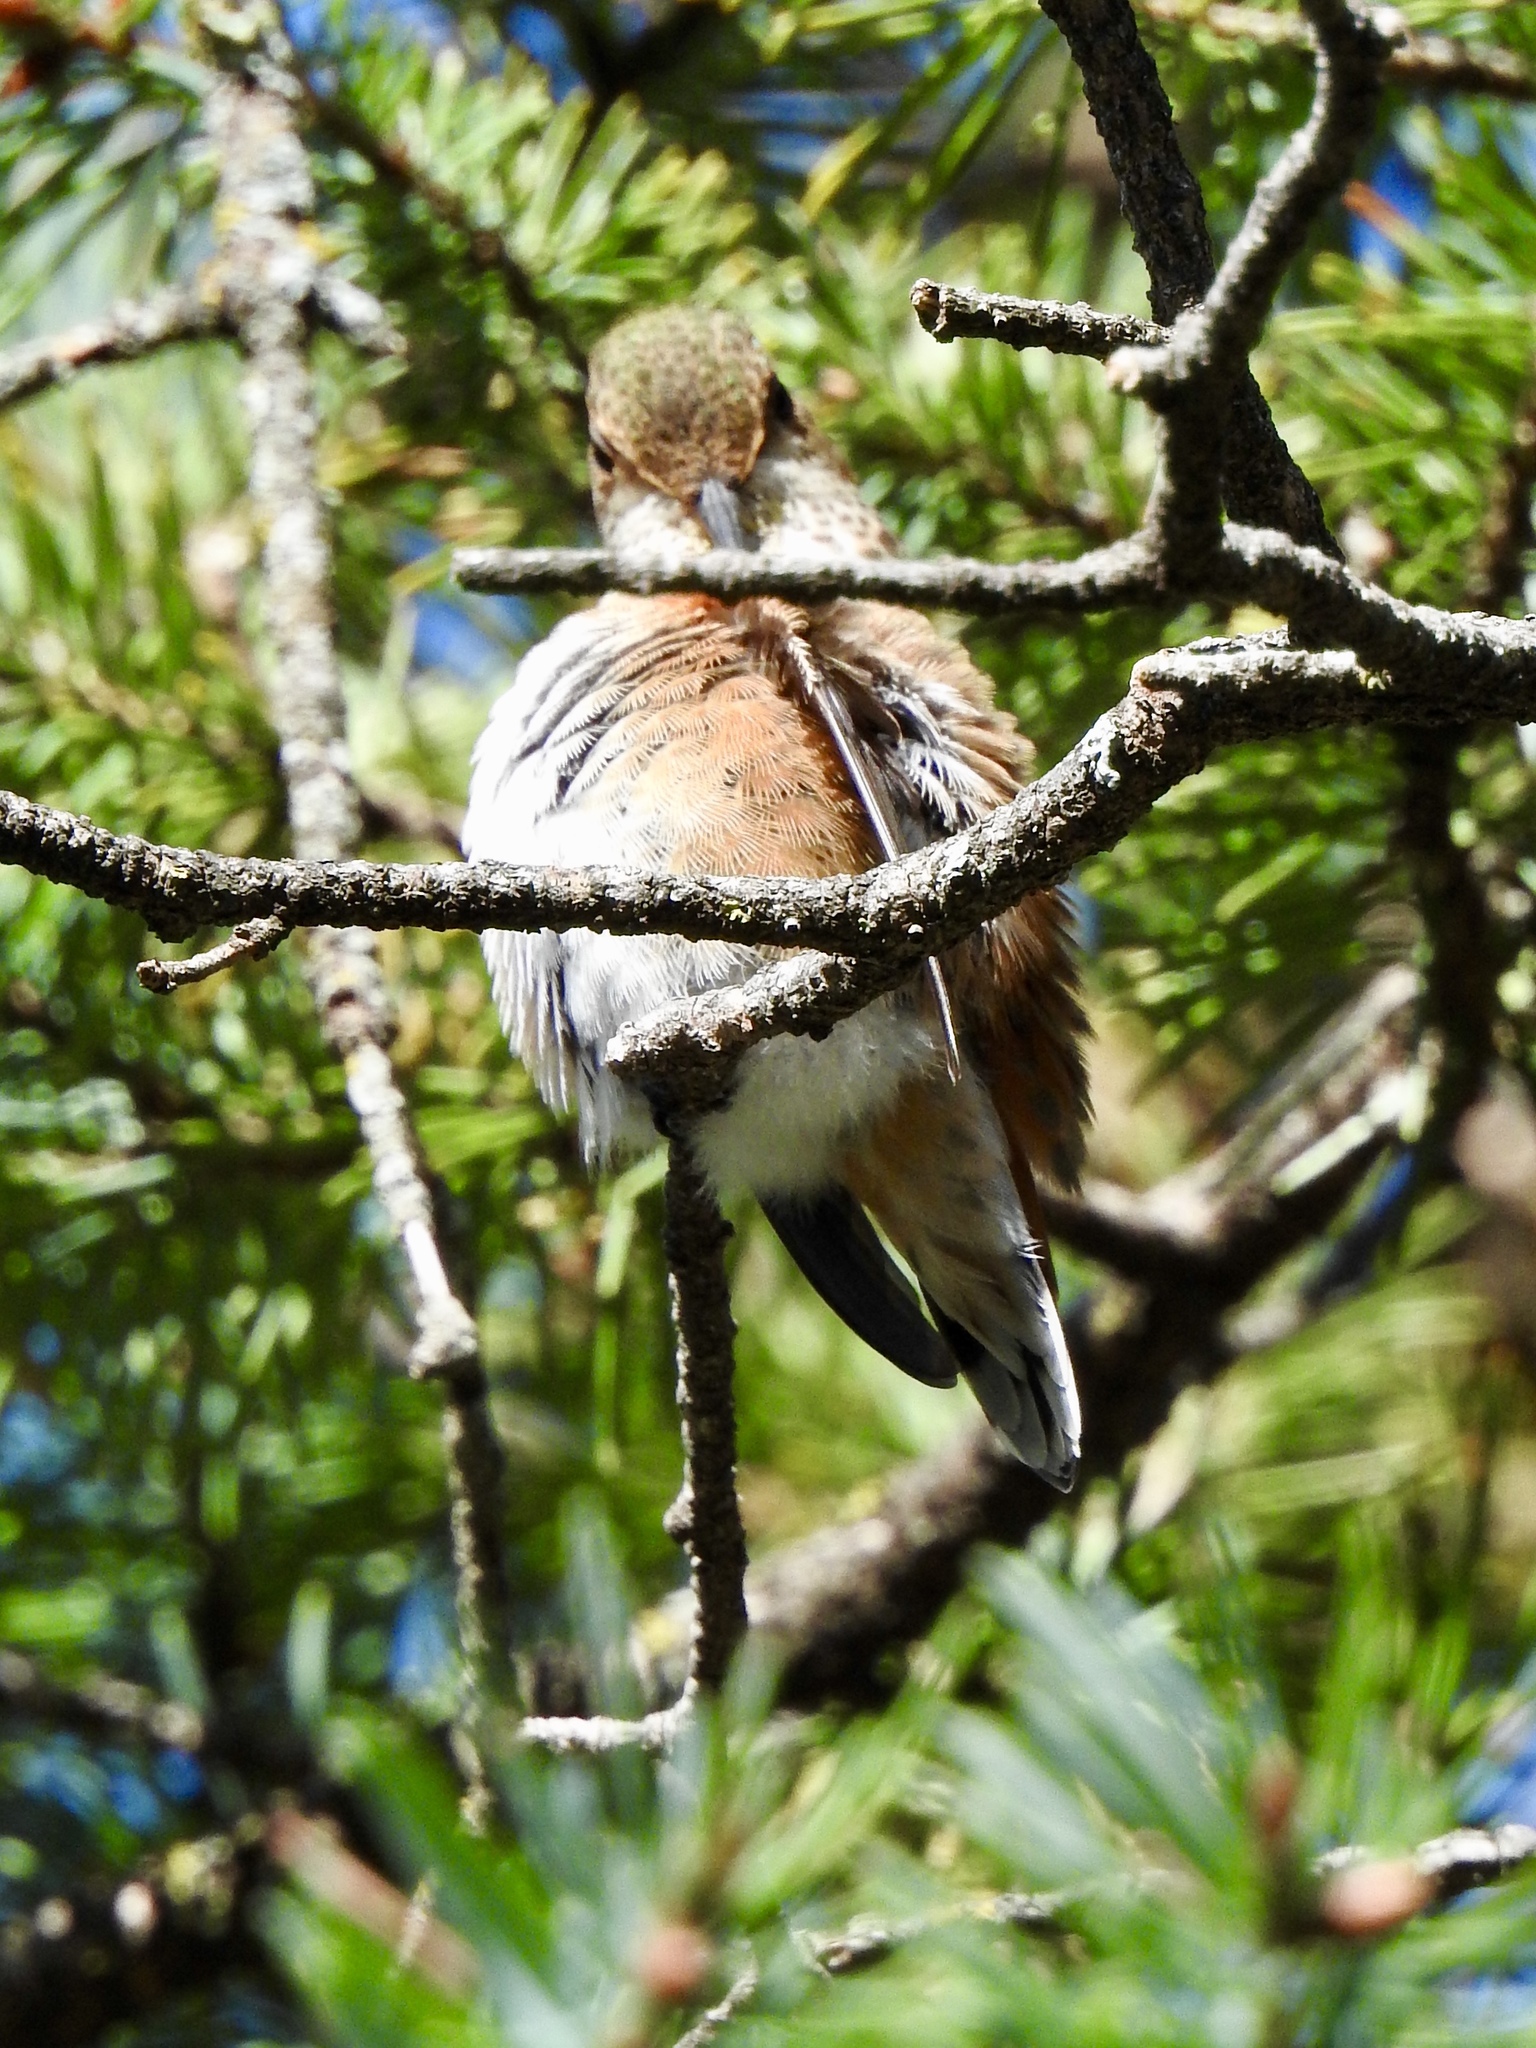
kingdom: Animalia
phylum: Chordata
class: Aves
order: Apodiformes
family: Trochilidae
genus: Selasphorus
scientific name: Selasphorus rufus
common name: Rufous hummingbird
